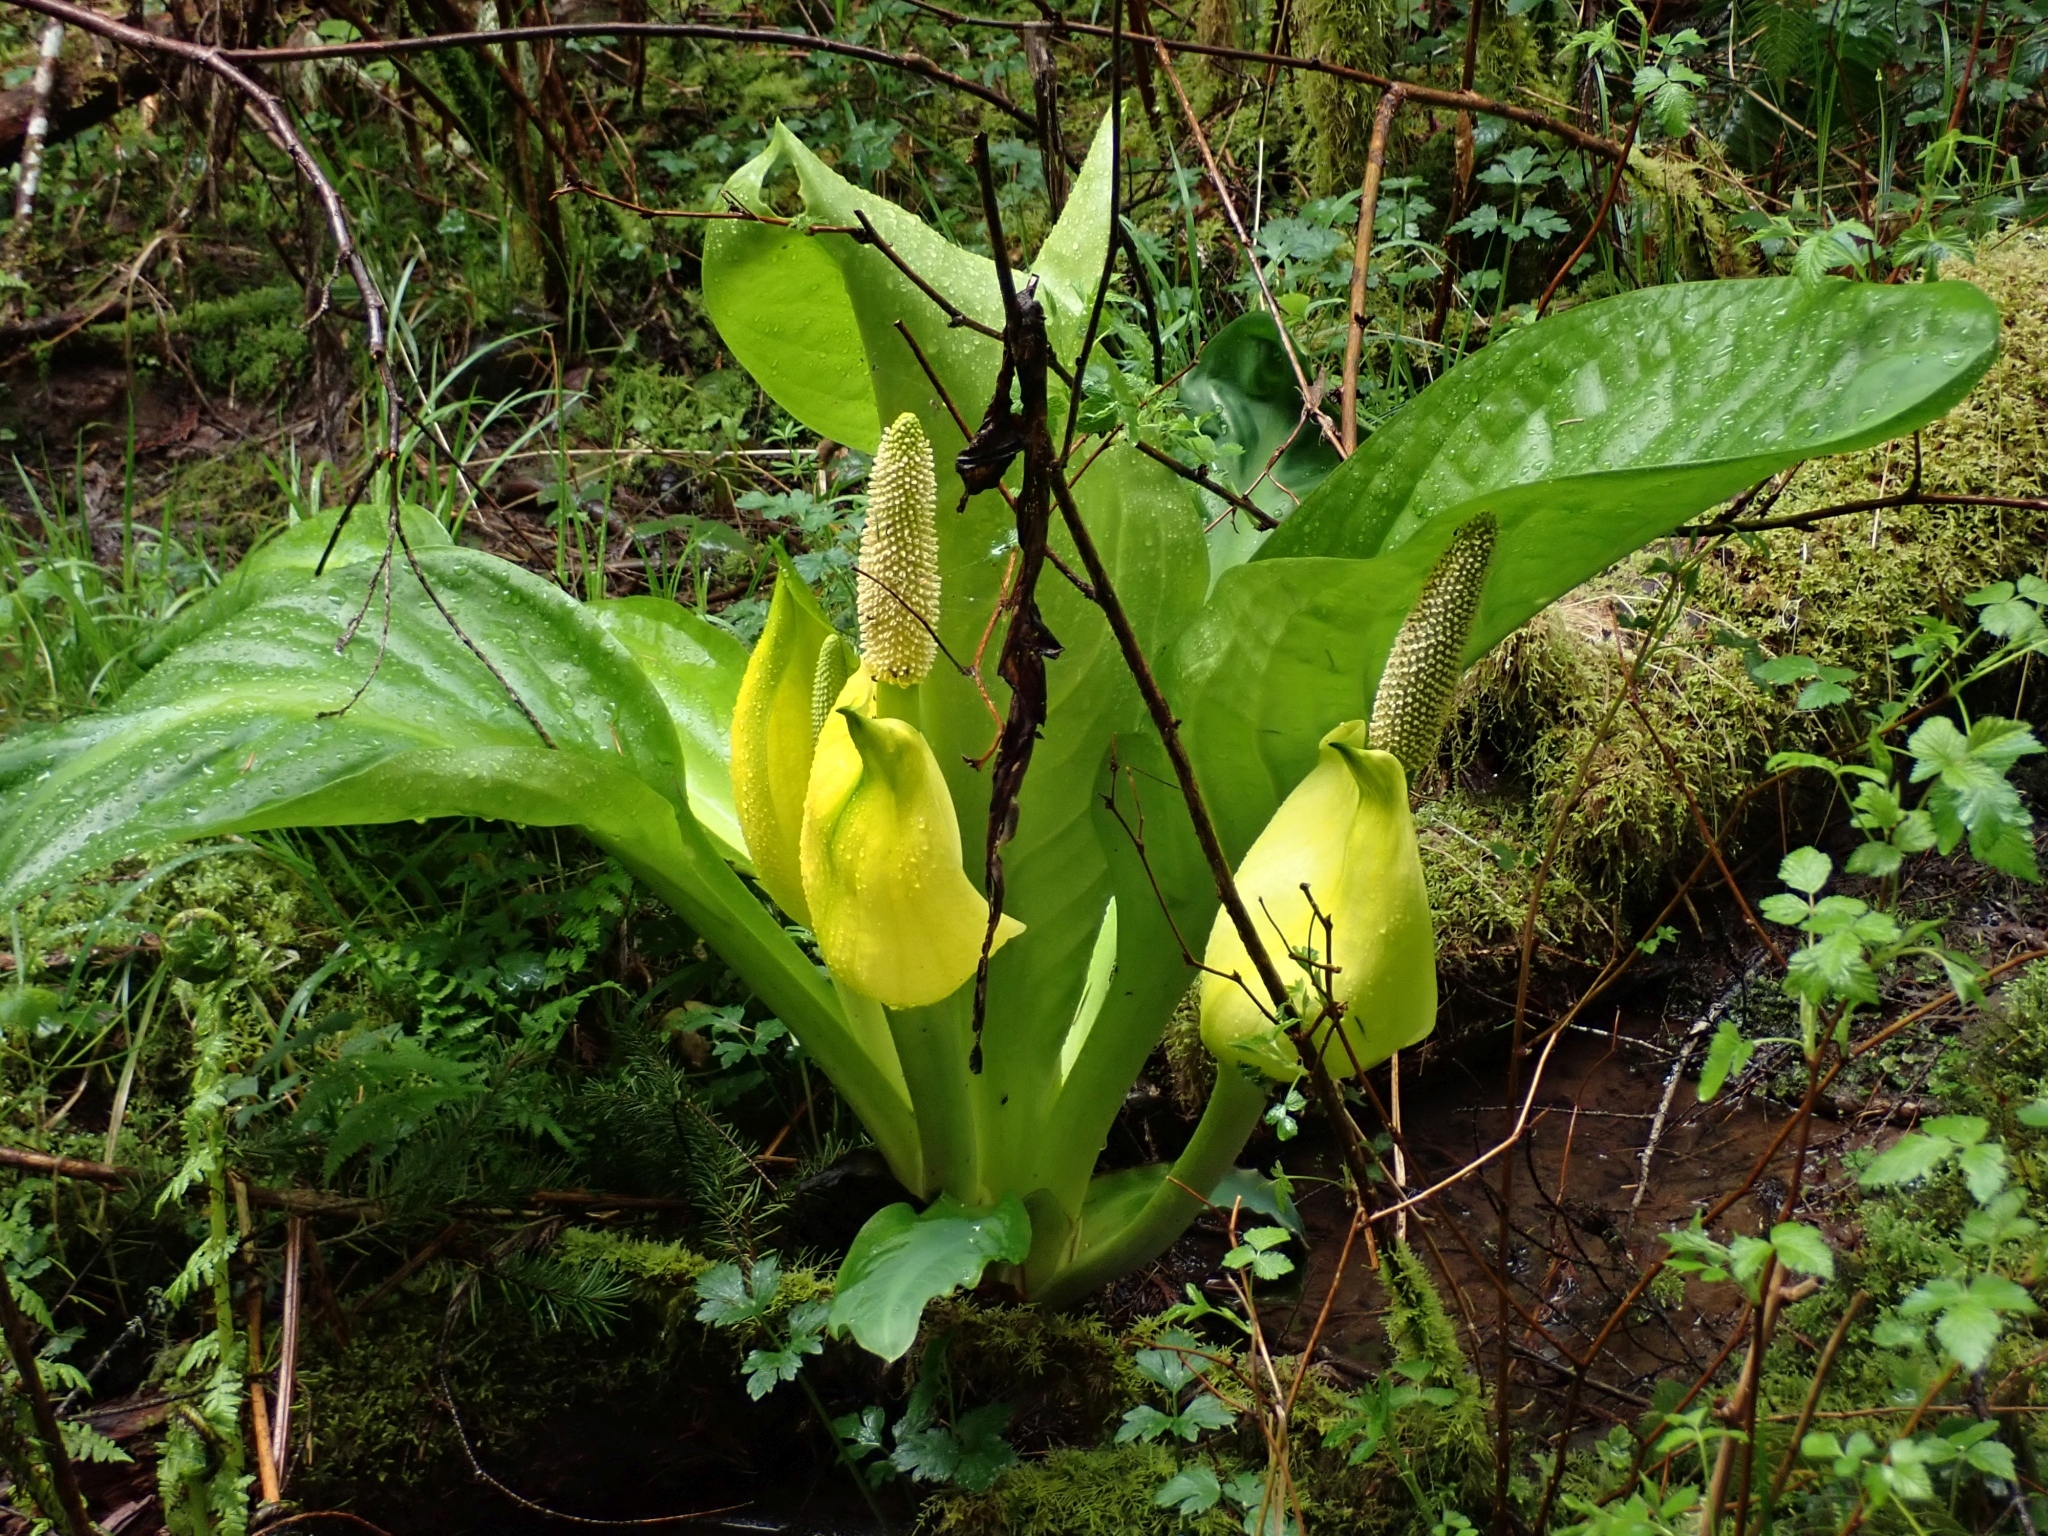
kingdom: Plantae
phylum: Tracheophyta
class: Liliopsida
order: Alismatales
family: Araceae
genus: Lysichiton
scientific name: Lysichiton americanus
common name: American skunk cabbage
